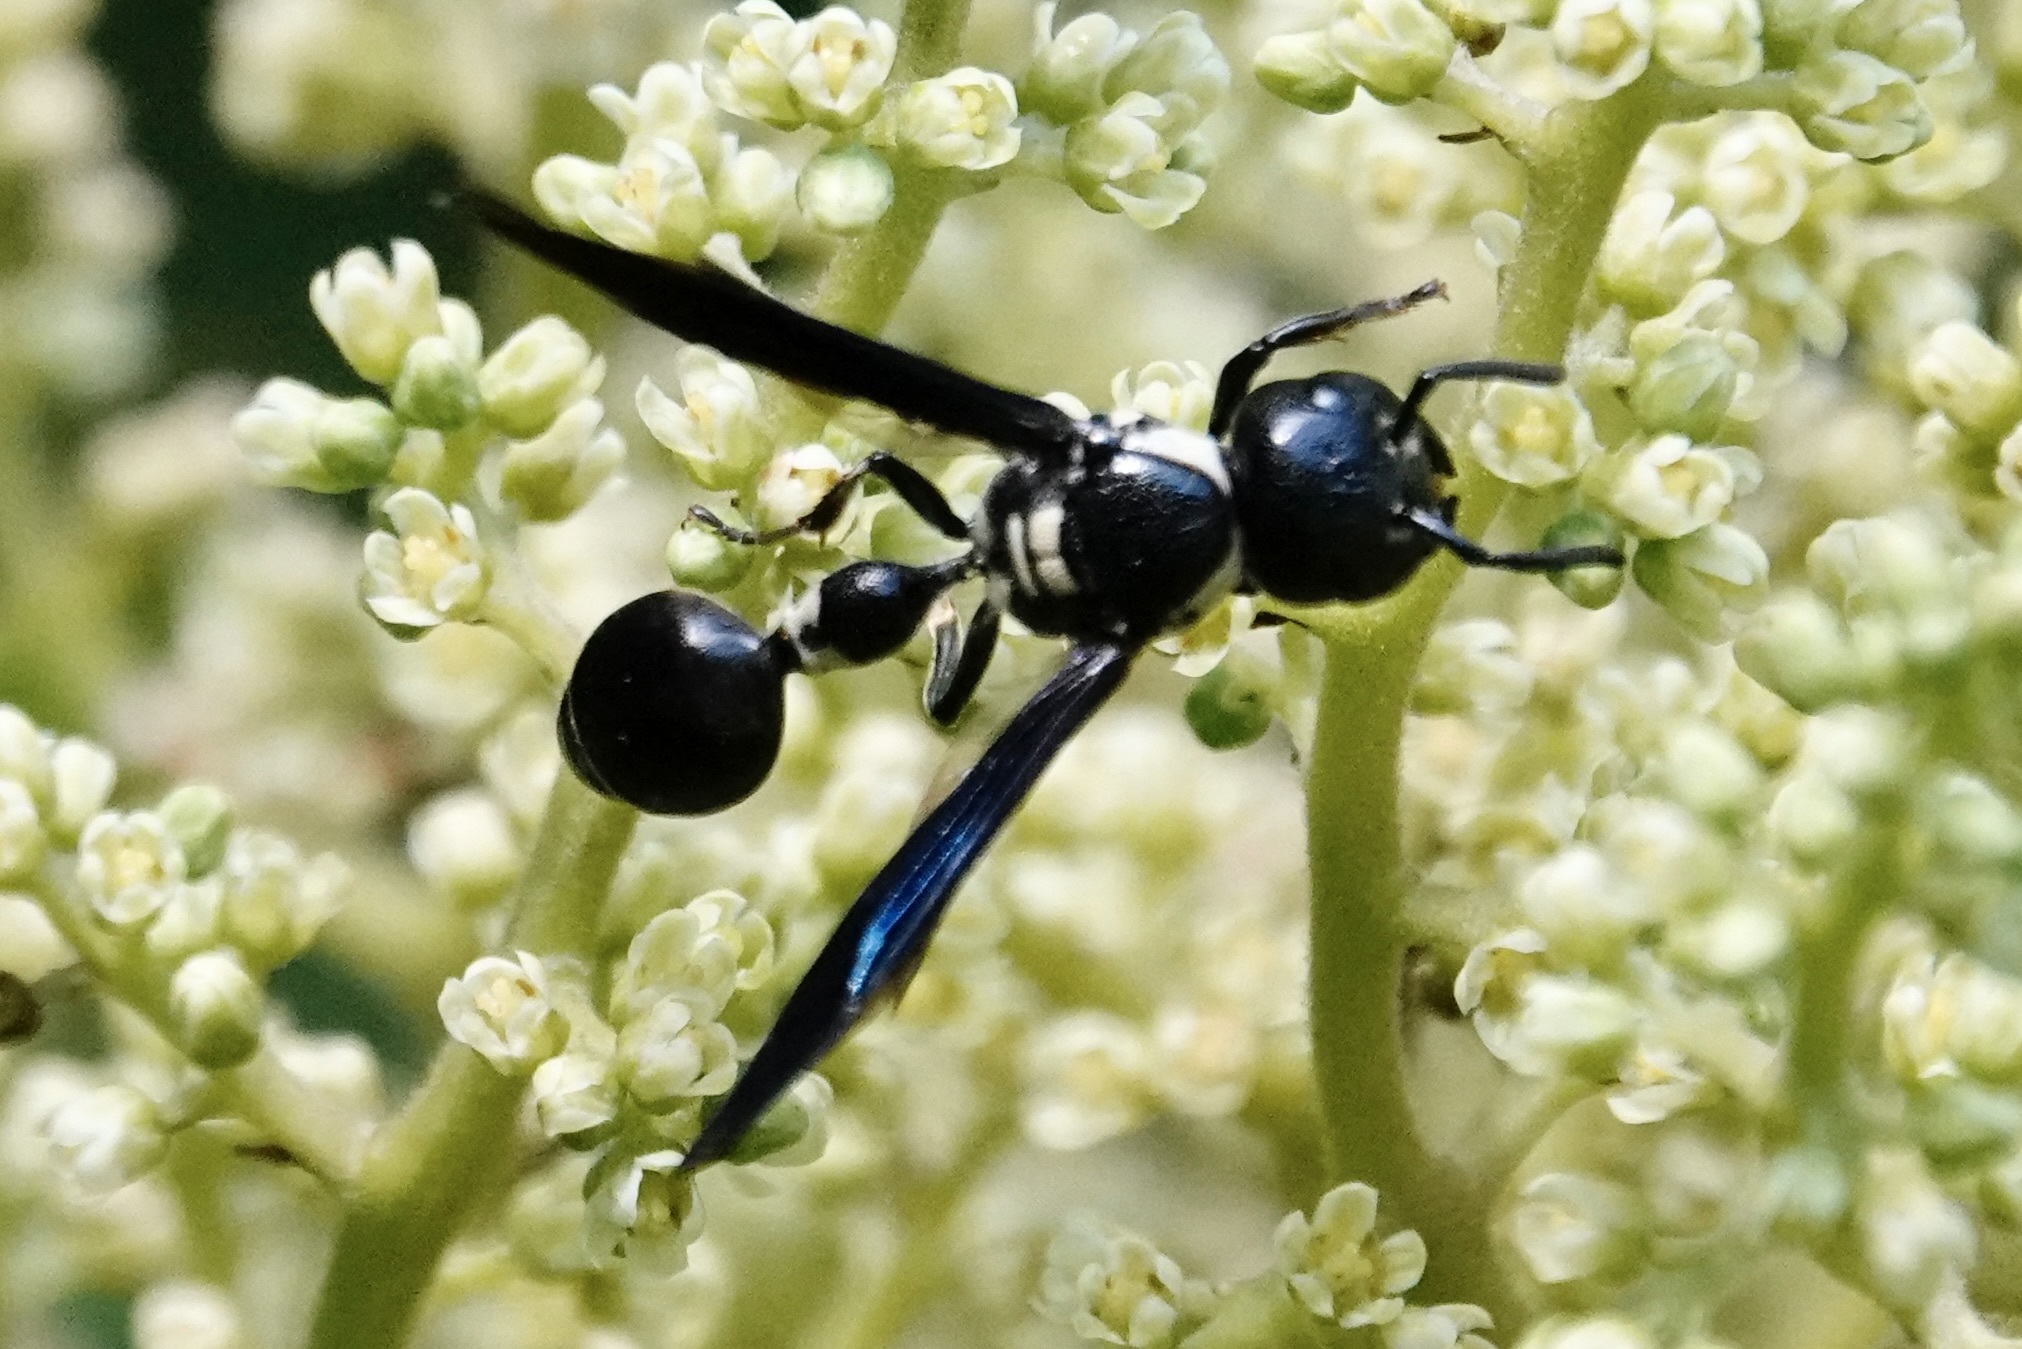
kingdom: Animalia
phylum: Arthropoda
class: Insecta
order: Hymenoptera
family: Eumenidae
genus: Zethus
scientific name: Zethus spinipes
